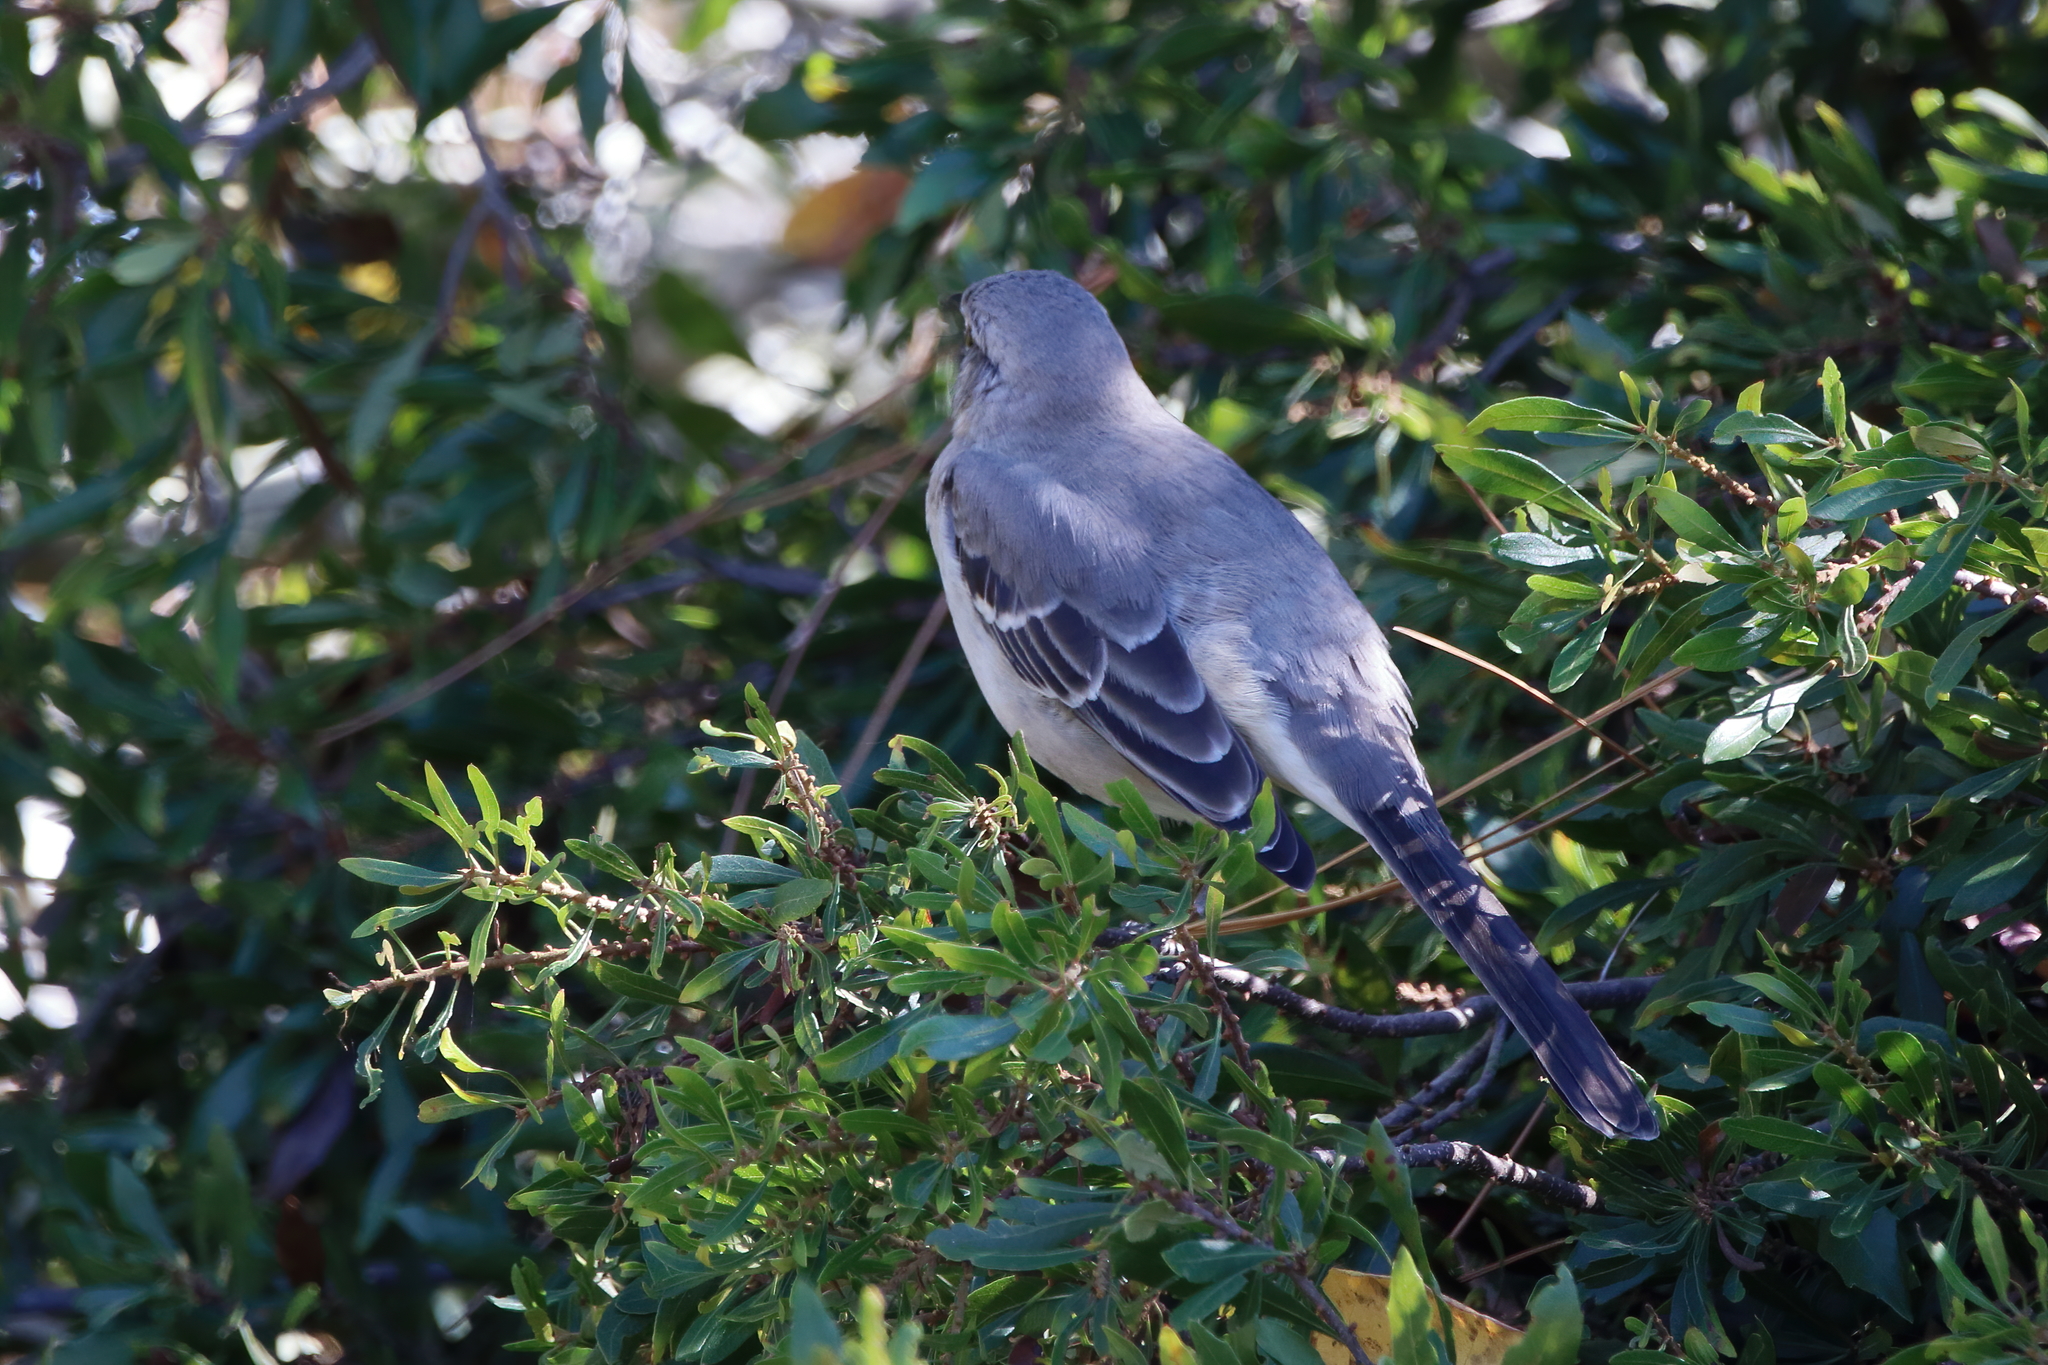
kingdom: Animalia
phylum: Chordata
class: Aves
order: Passeriformes
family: Mimidae
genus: Mimus
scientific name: Mimus polyglottos
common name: Northern mockingbird
